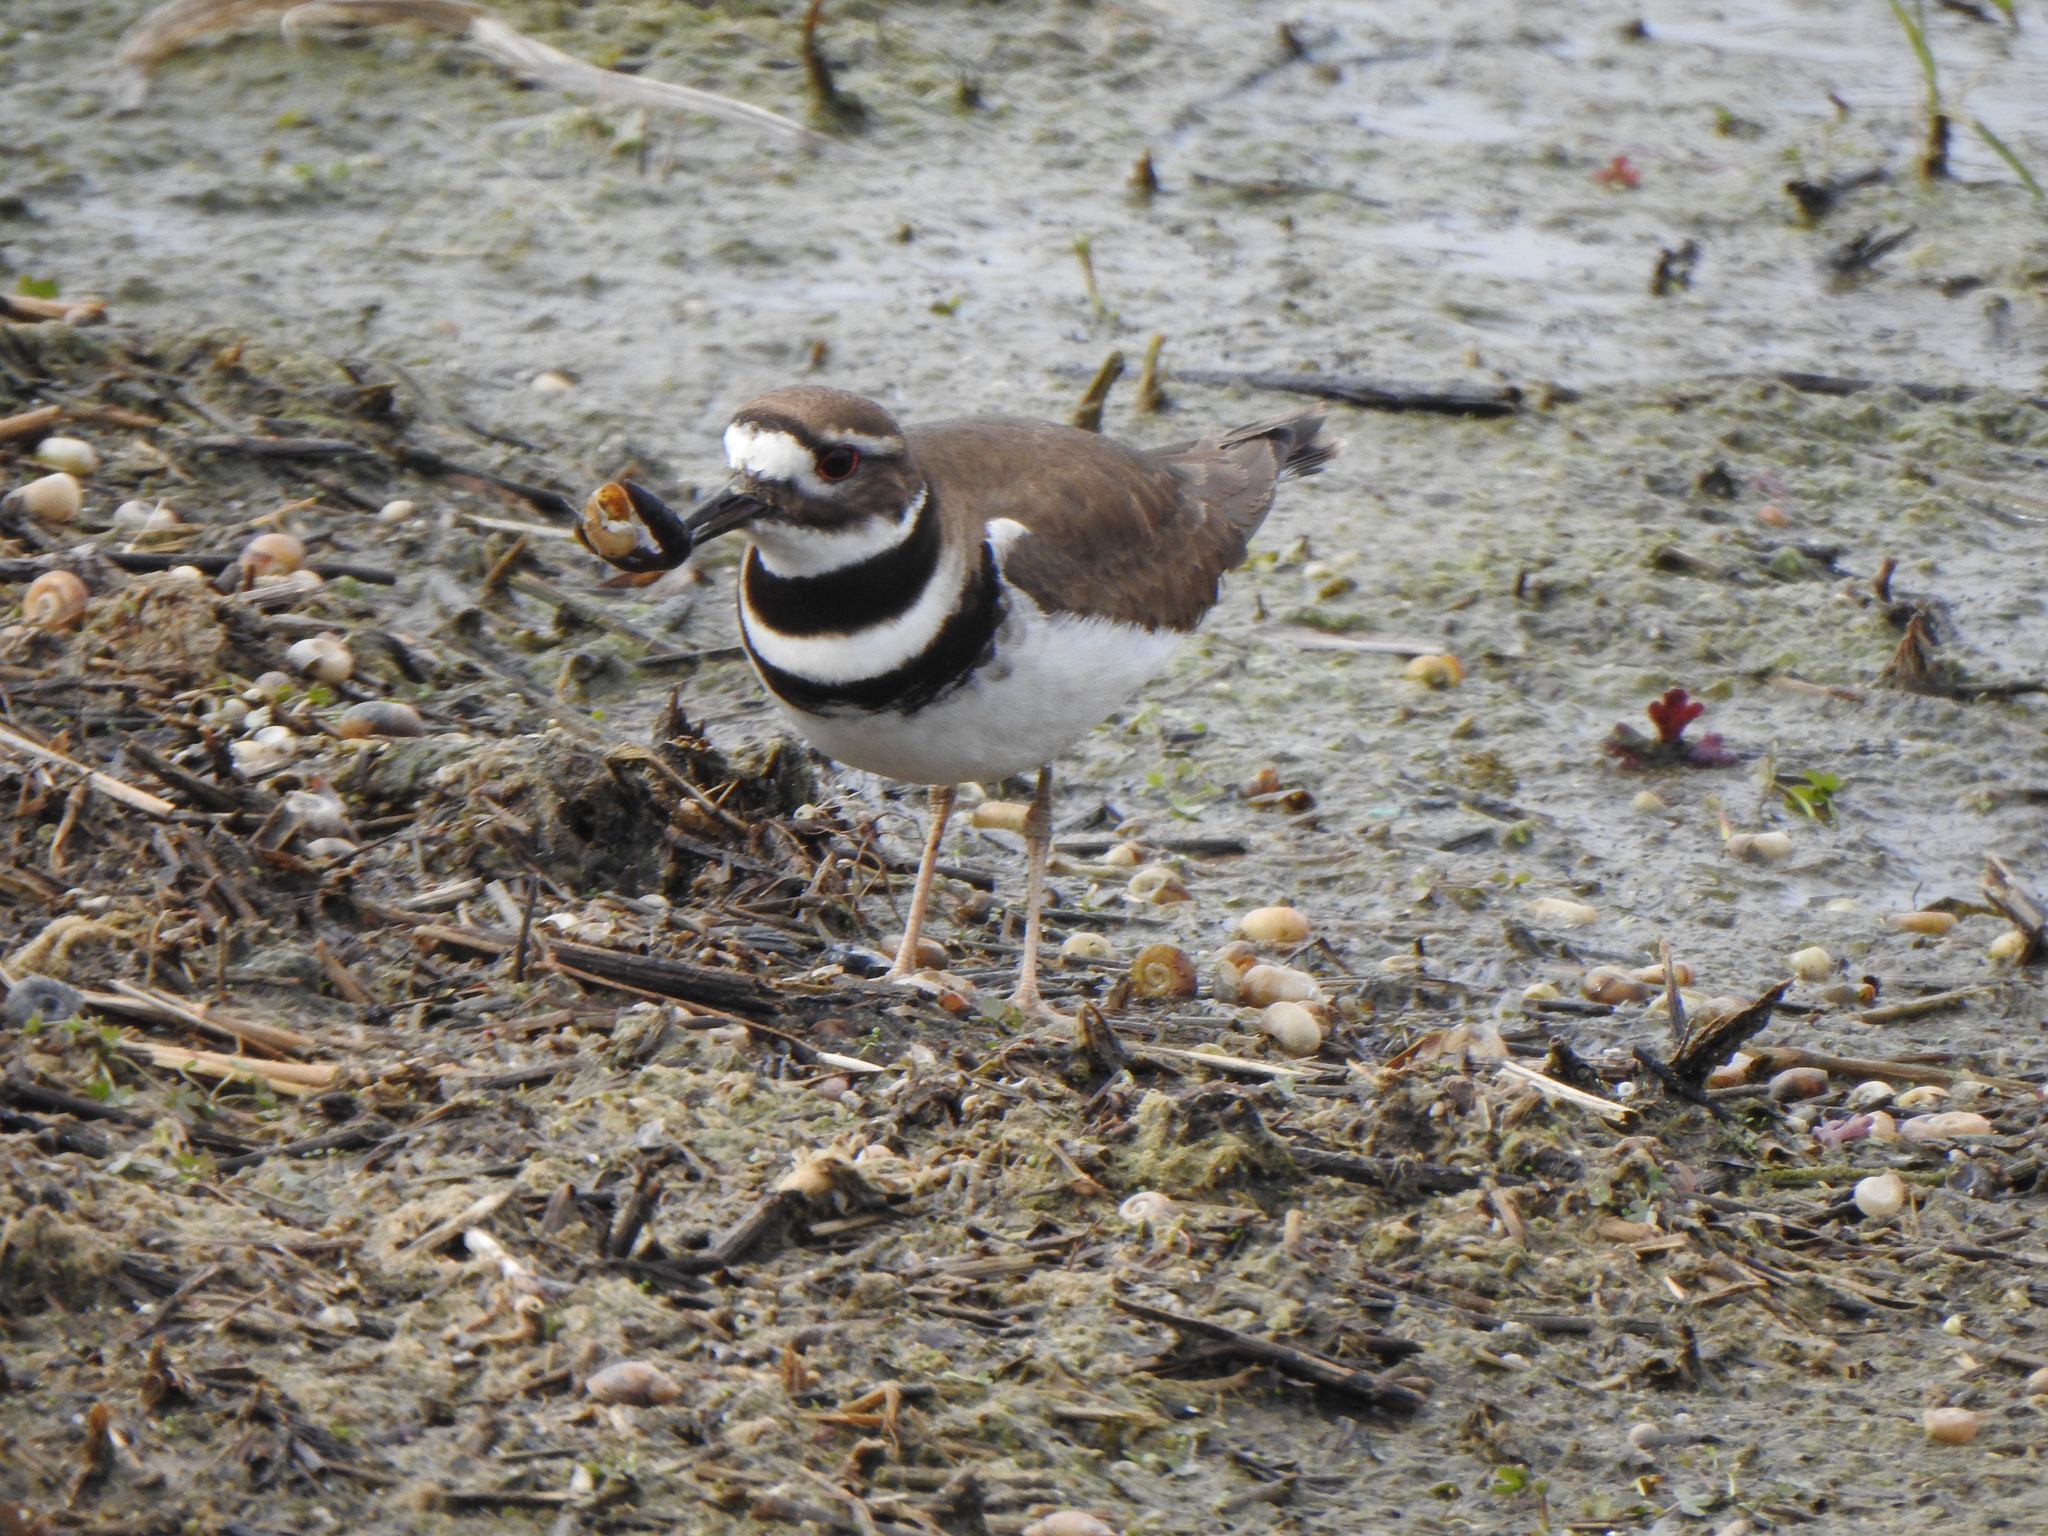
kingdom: Animalia
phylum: Chordata
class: Aves
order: Charadriiformes
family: Charadriidae
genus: Charadrius
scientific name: Charadrius vociferus
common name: Killdeer
